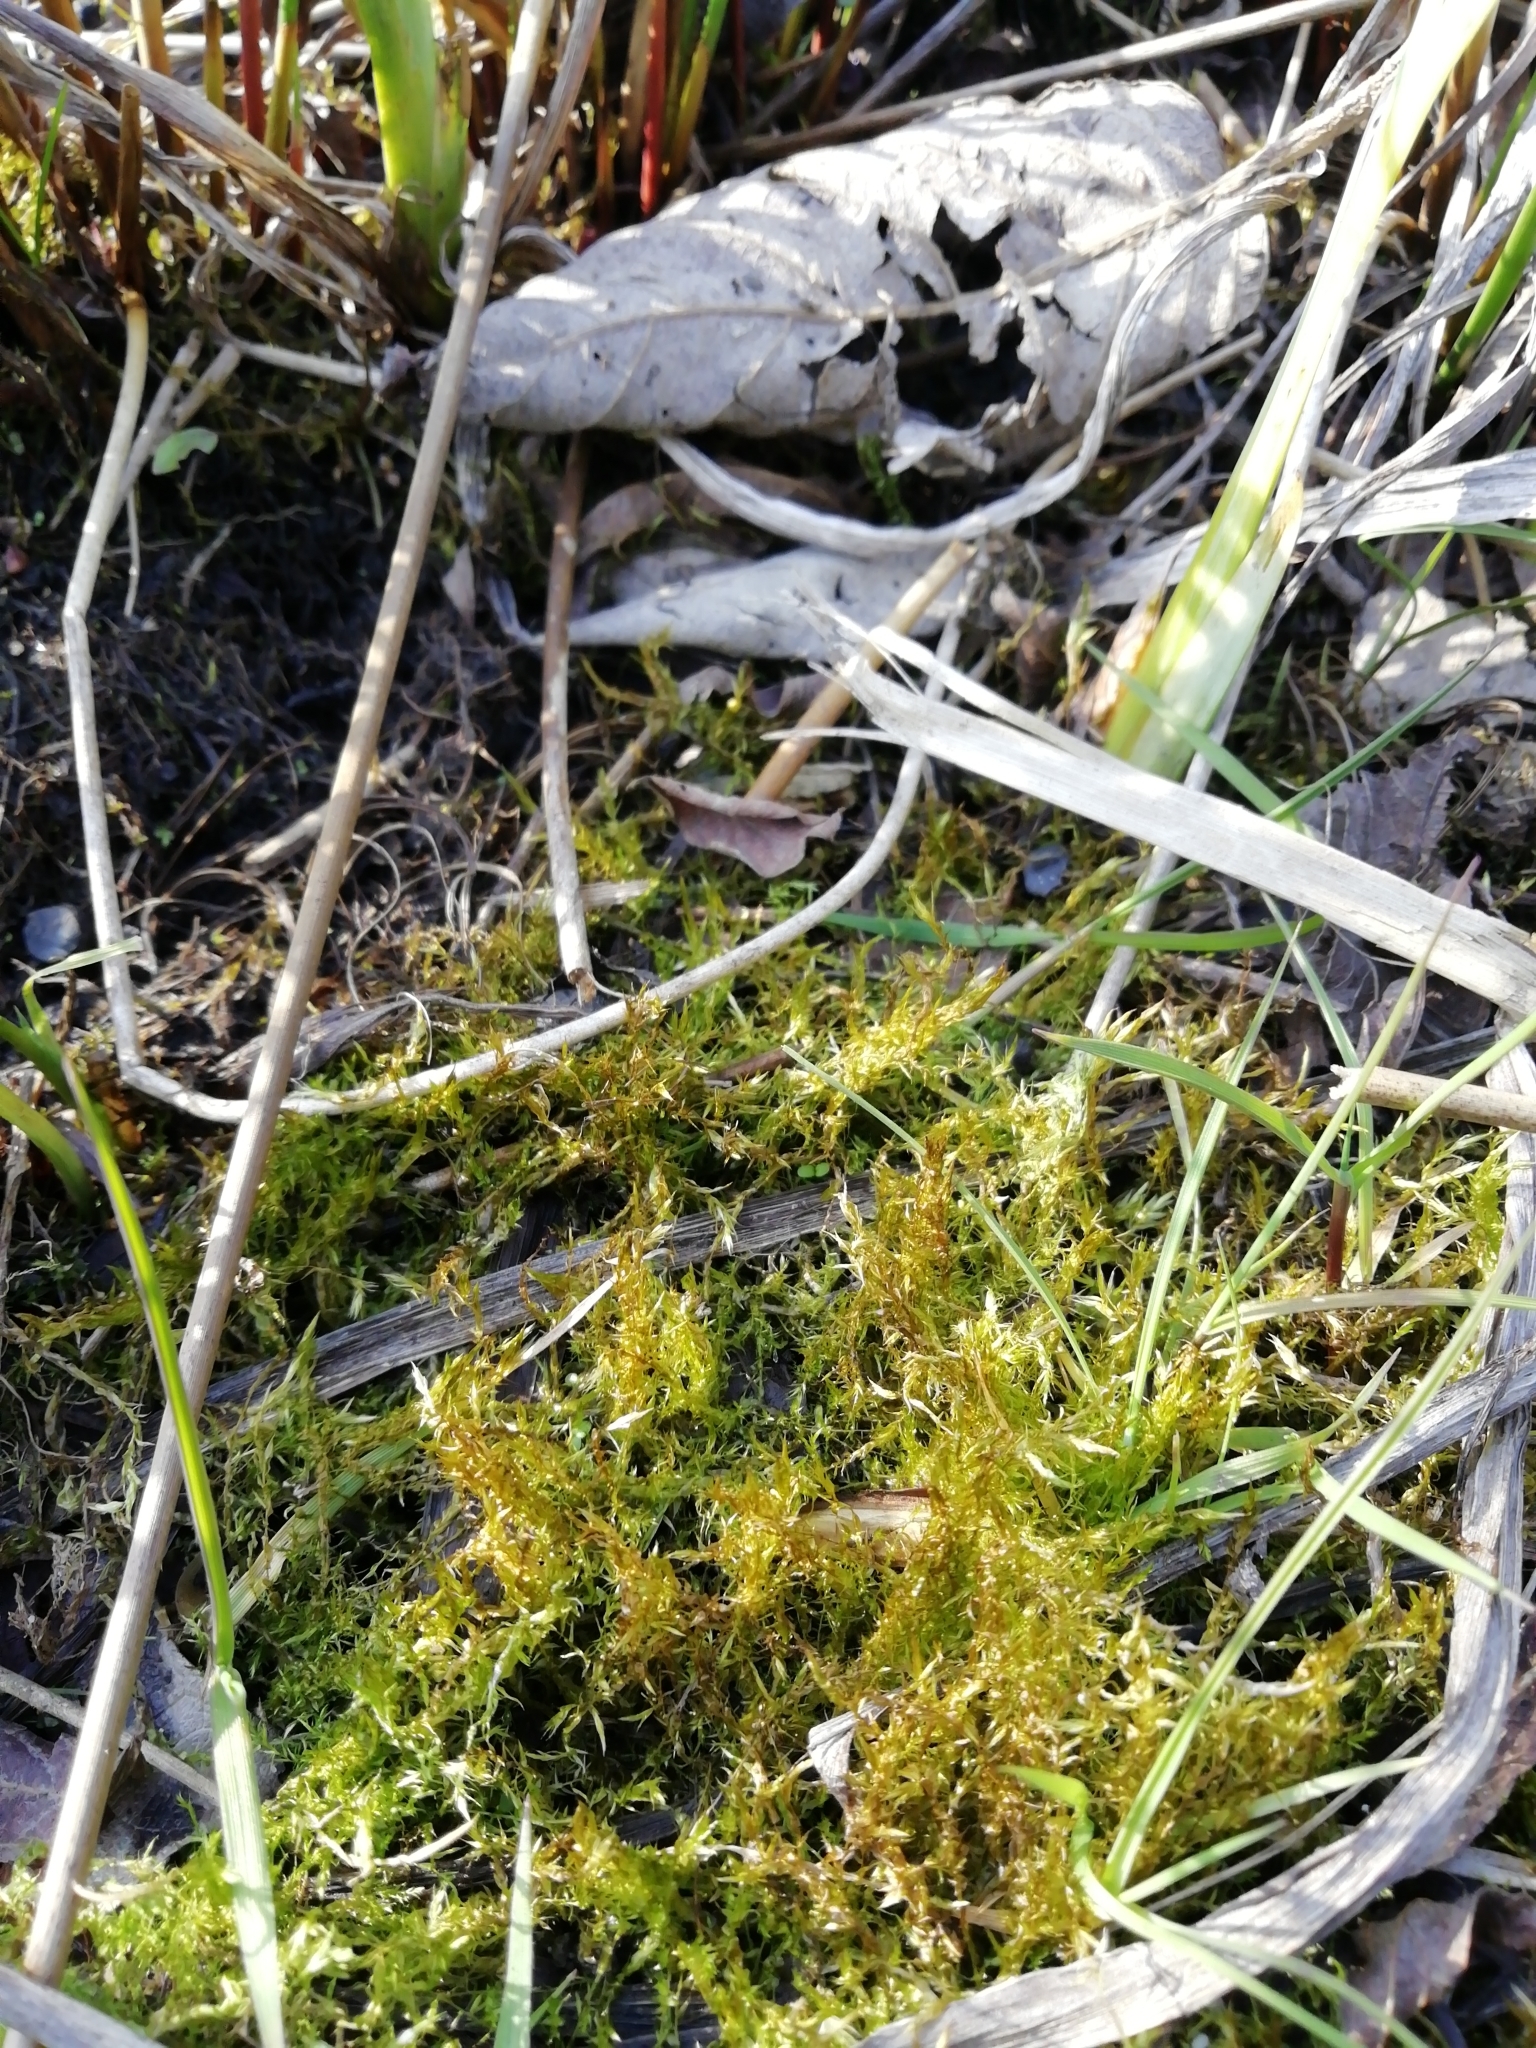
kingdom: Plantae
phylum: Bryophyta
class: Bryopsida
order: Hypnales
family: Pylaisiaceae
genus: Calliergonella
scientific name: Calliergonella cuspidata
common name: Common large wetland moss
